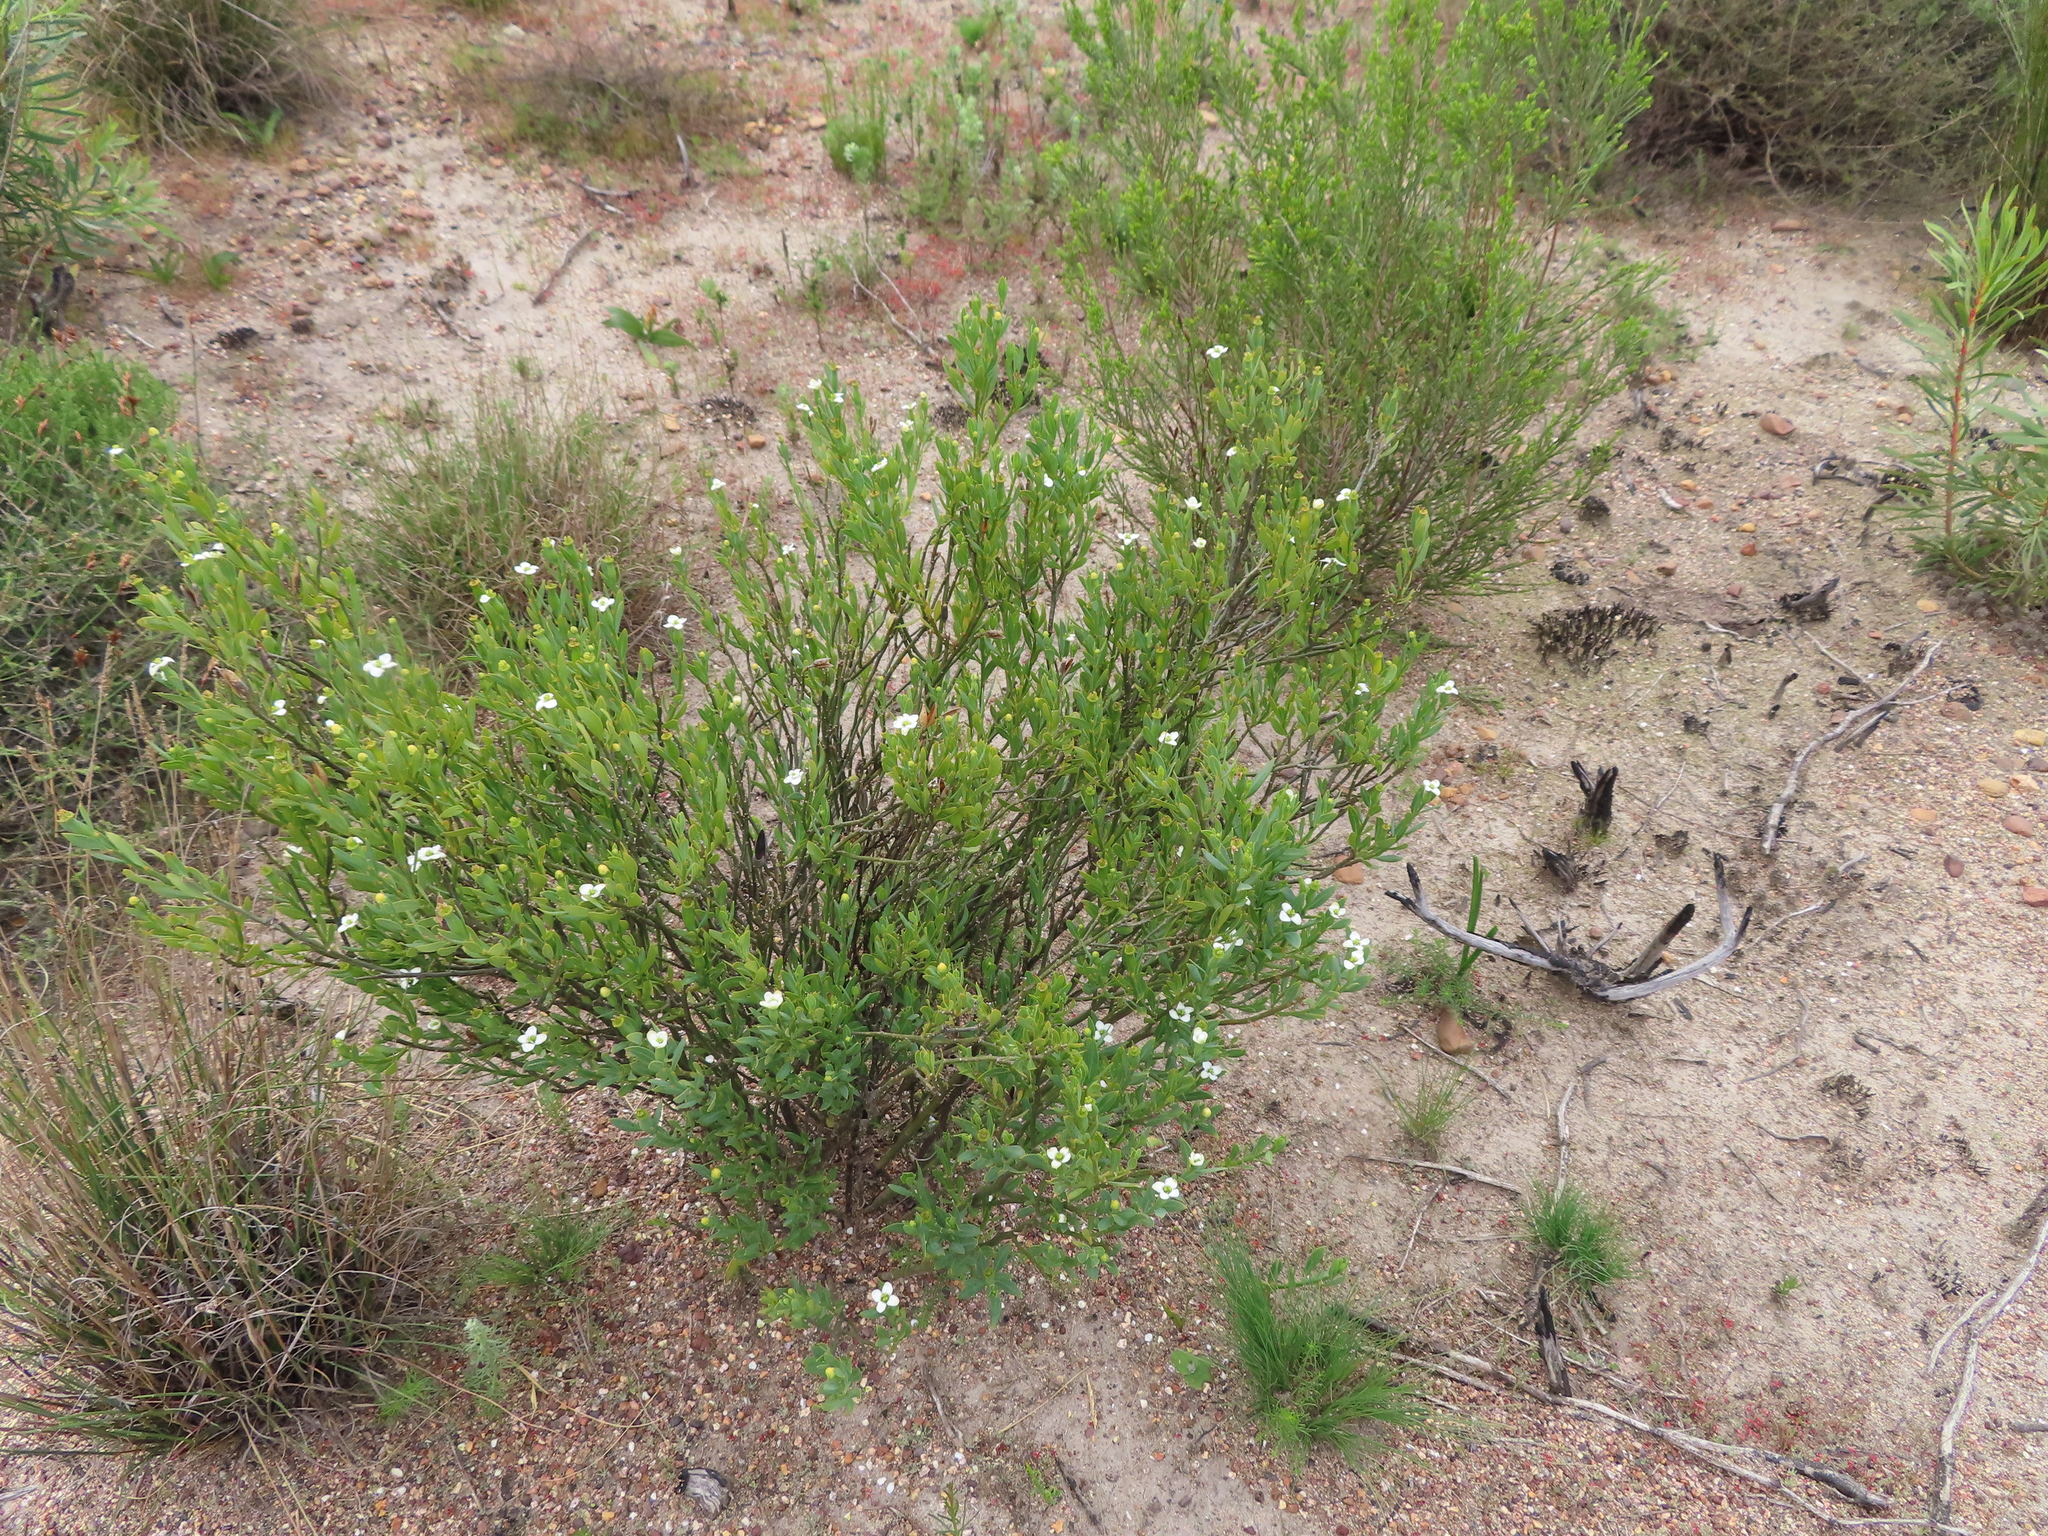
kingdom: Plantae
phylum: Tracheophyta
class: Magnoliopsida
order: Solanales
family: Montiniaceae
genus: Montinia
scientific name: Montinia caryophyllacea
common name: Wild clove-bush
